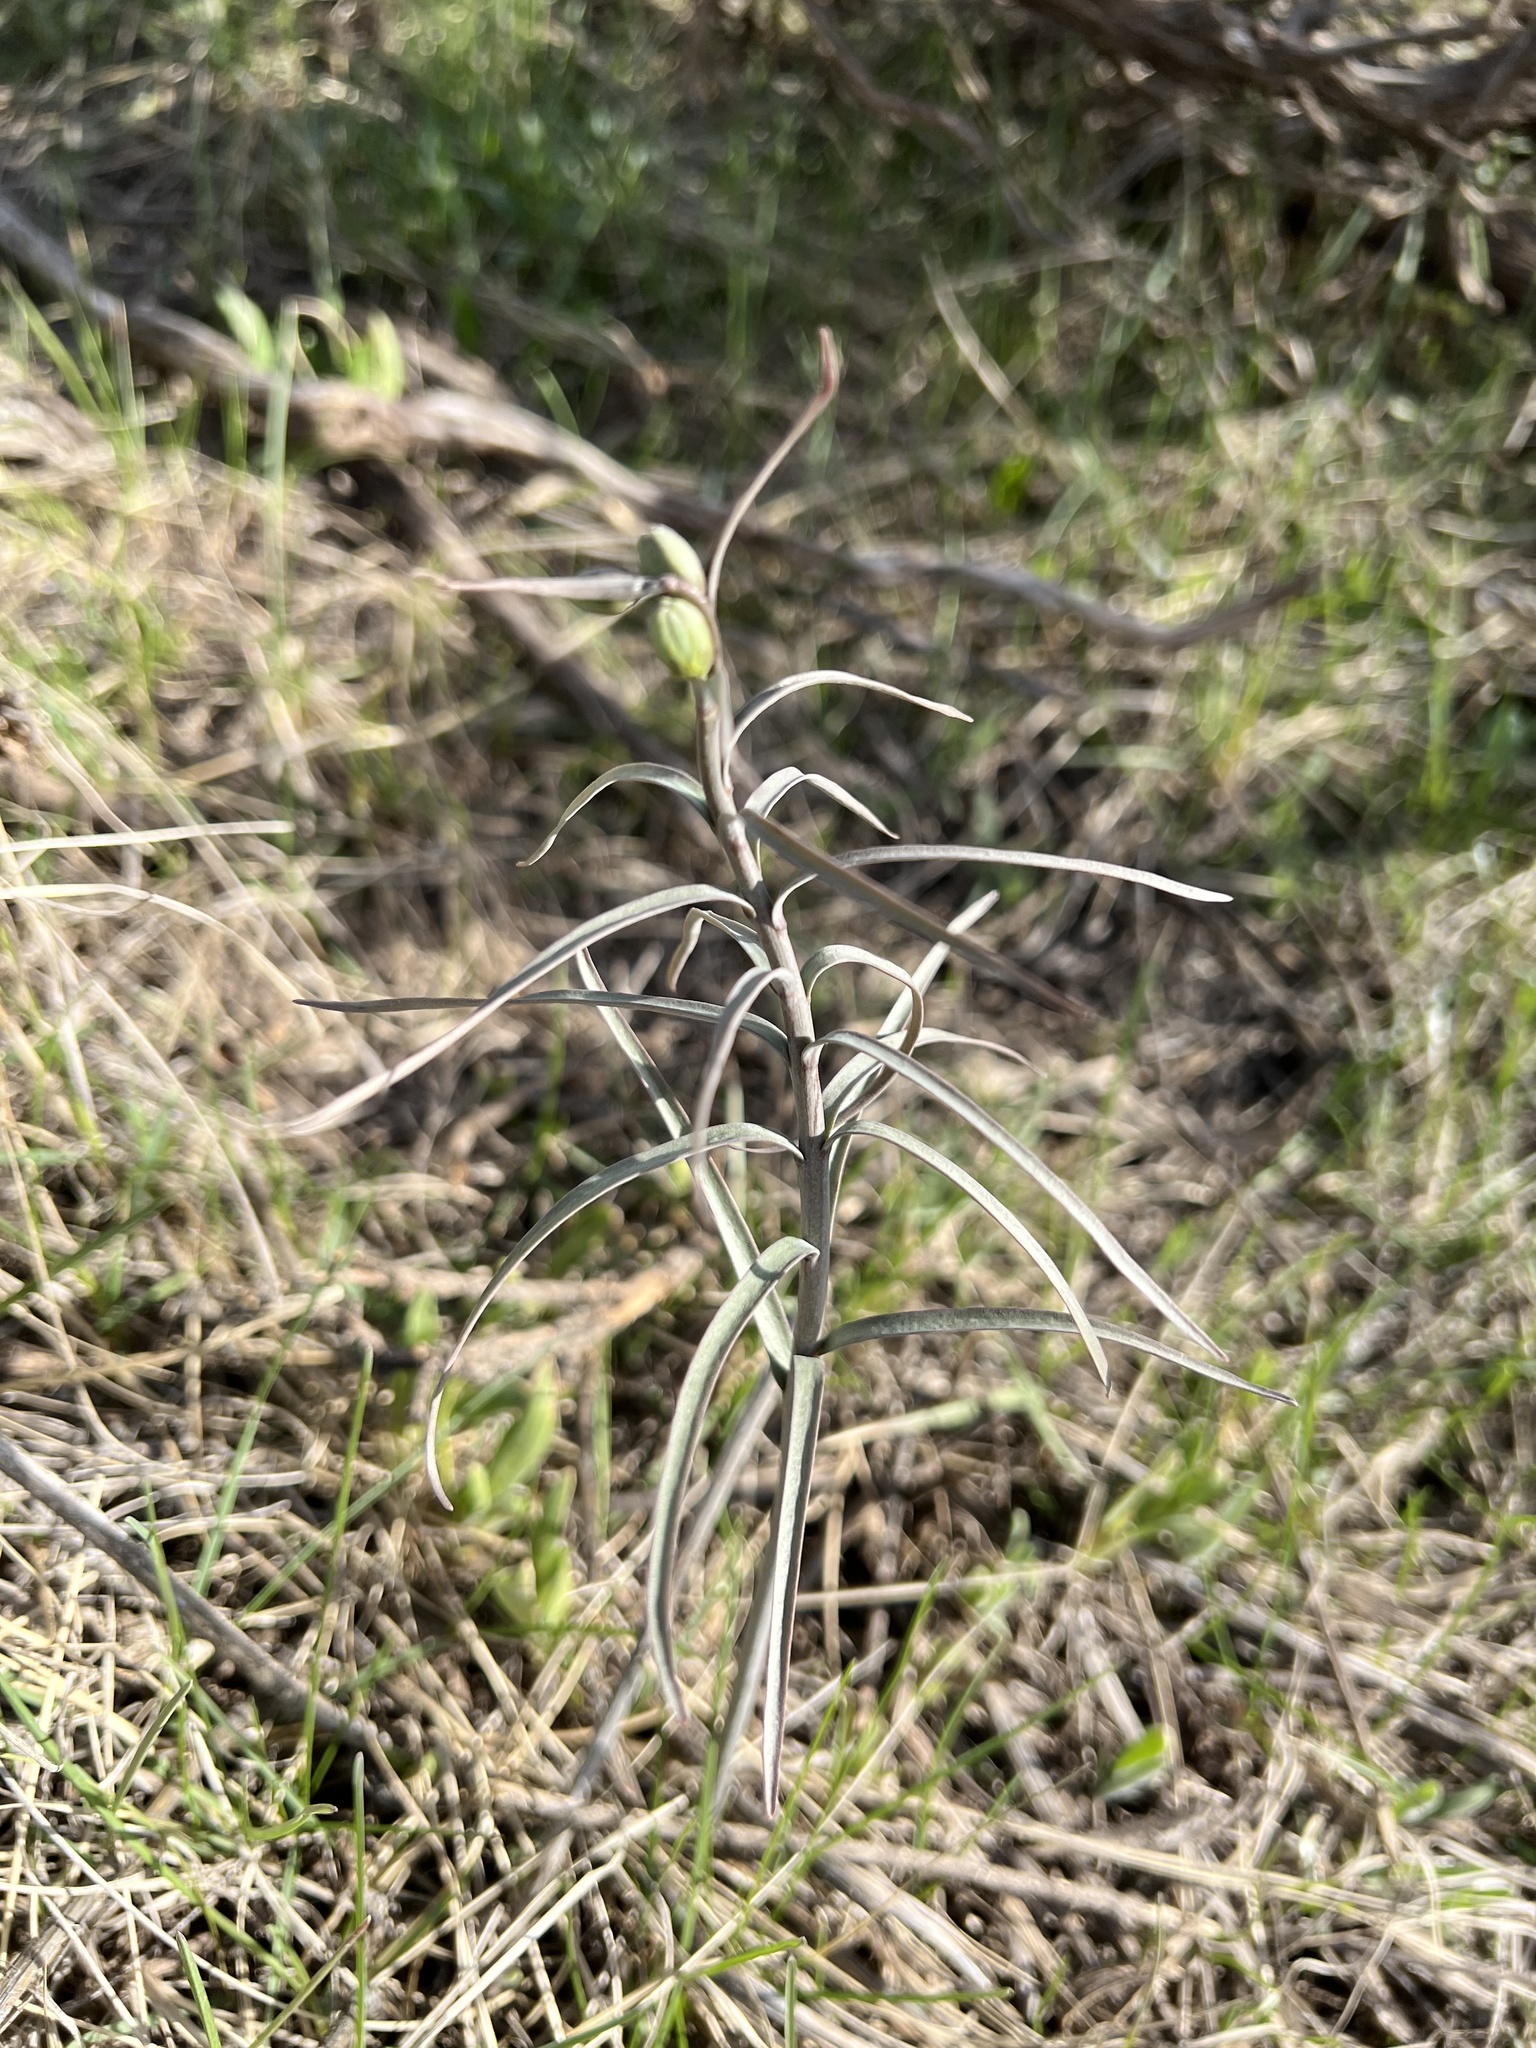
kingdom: Plantae
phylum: Tracheophyta
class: Liliopsida
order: Liliales
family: Liliaceae
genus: Fritillaria
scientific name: Fritillaria atropurpurea
